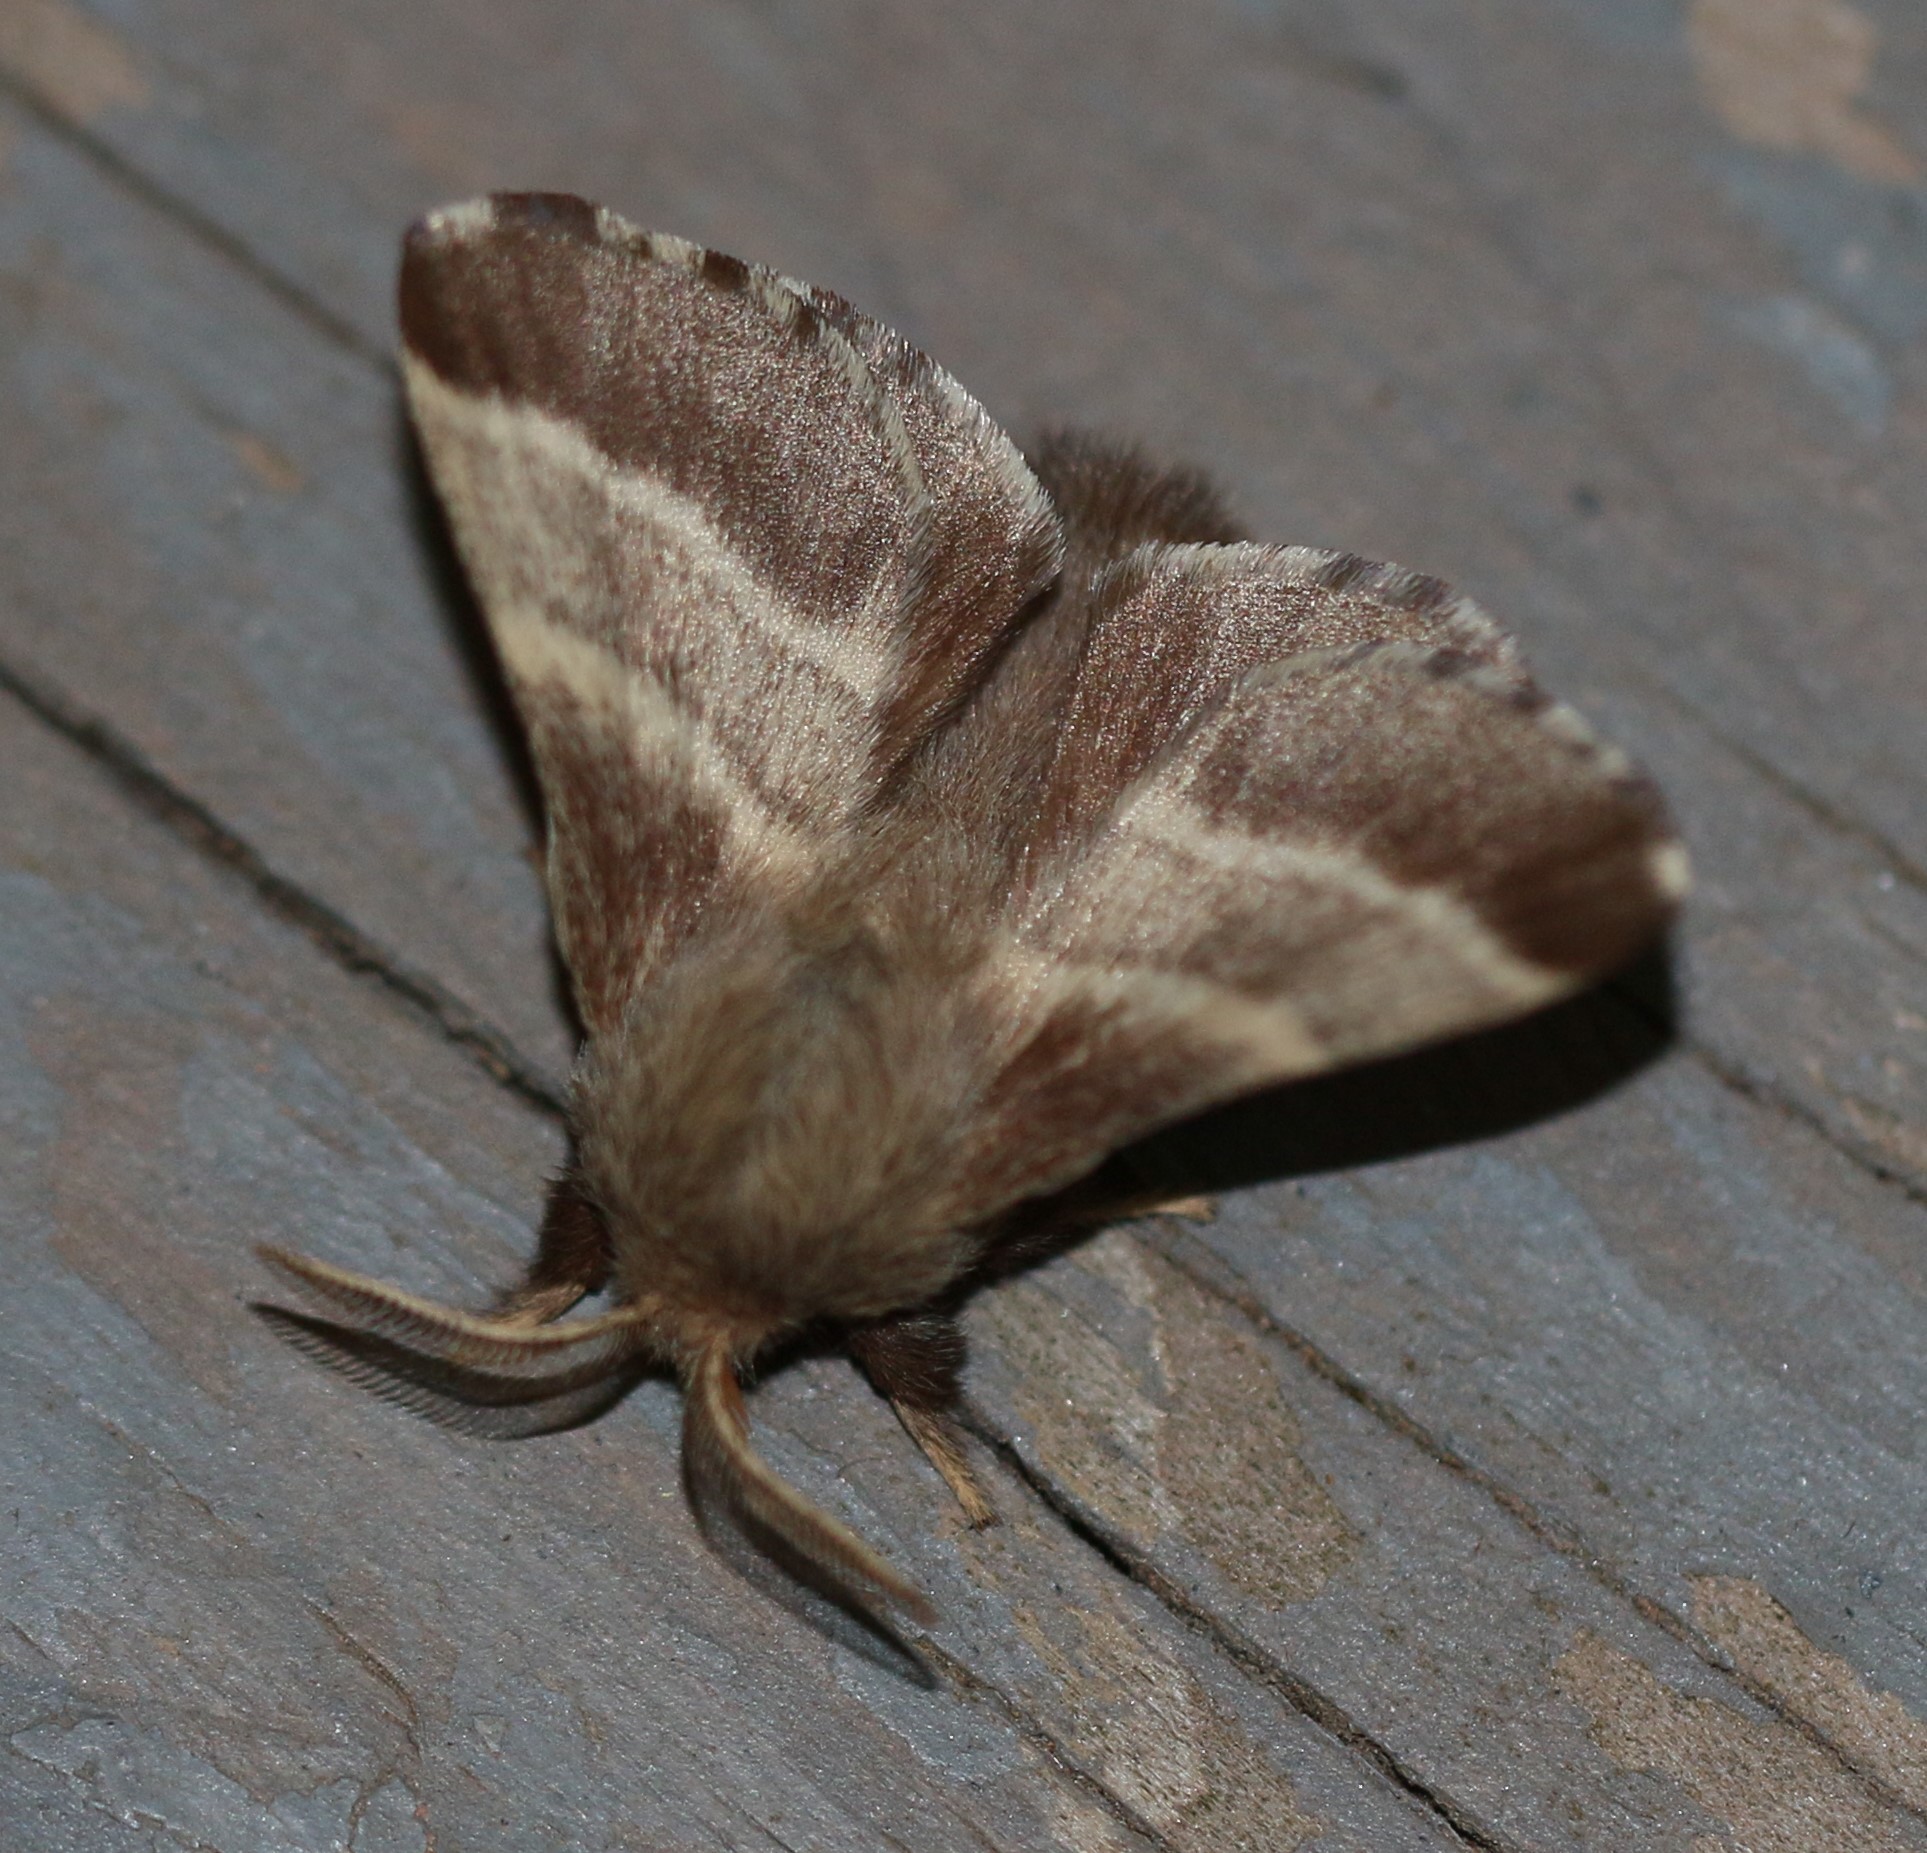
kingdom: Animalia
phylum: Arthropoda
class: Insecta
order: Lepidoptera
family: Lasiocampidae
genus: Malacosoma
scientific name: Malacosoma americana
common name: Eastern tent caterpillar moth
